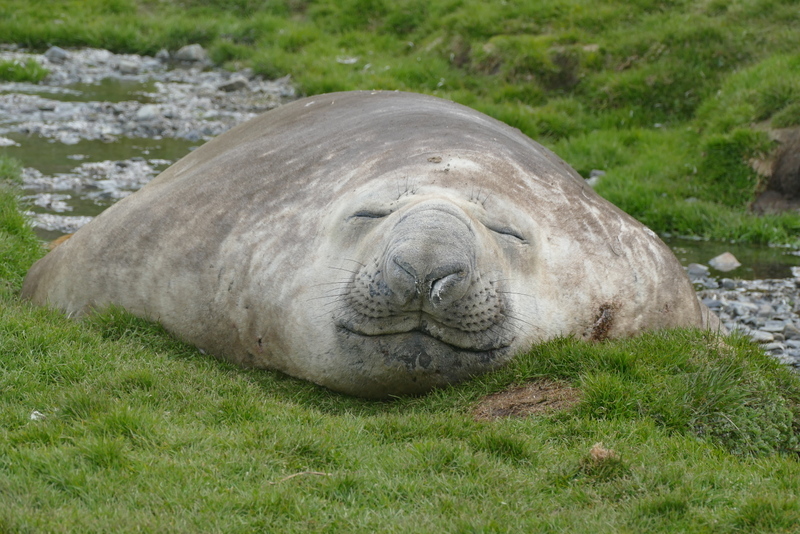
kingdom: Animalia
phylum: Chordata
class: Mammalia
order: Carnivora
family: Phocidae
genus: Mirounga
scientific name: Mirounga leonina
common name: Southern elephant seal
